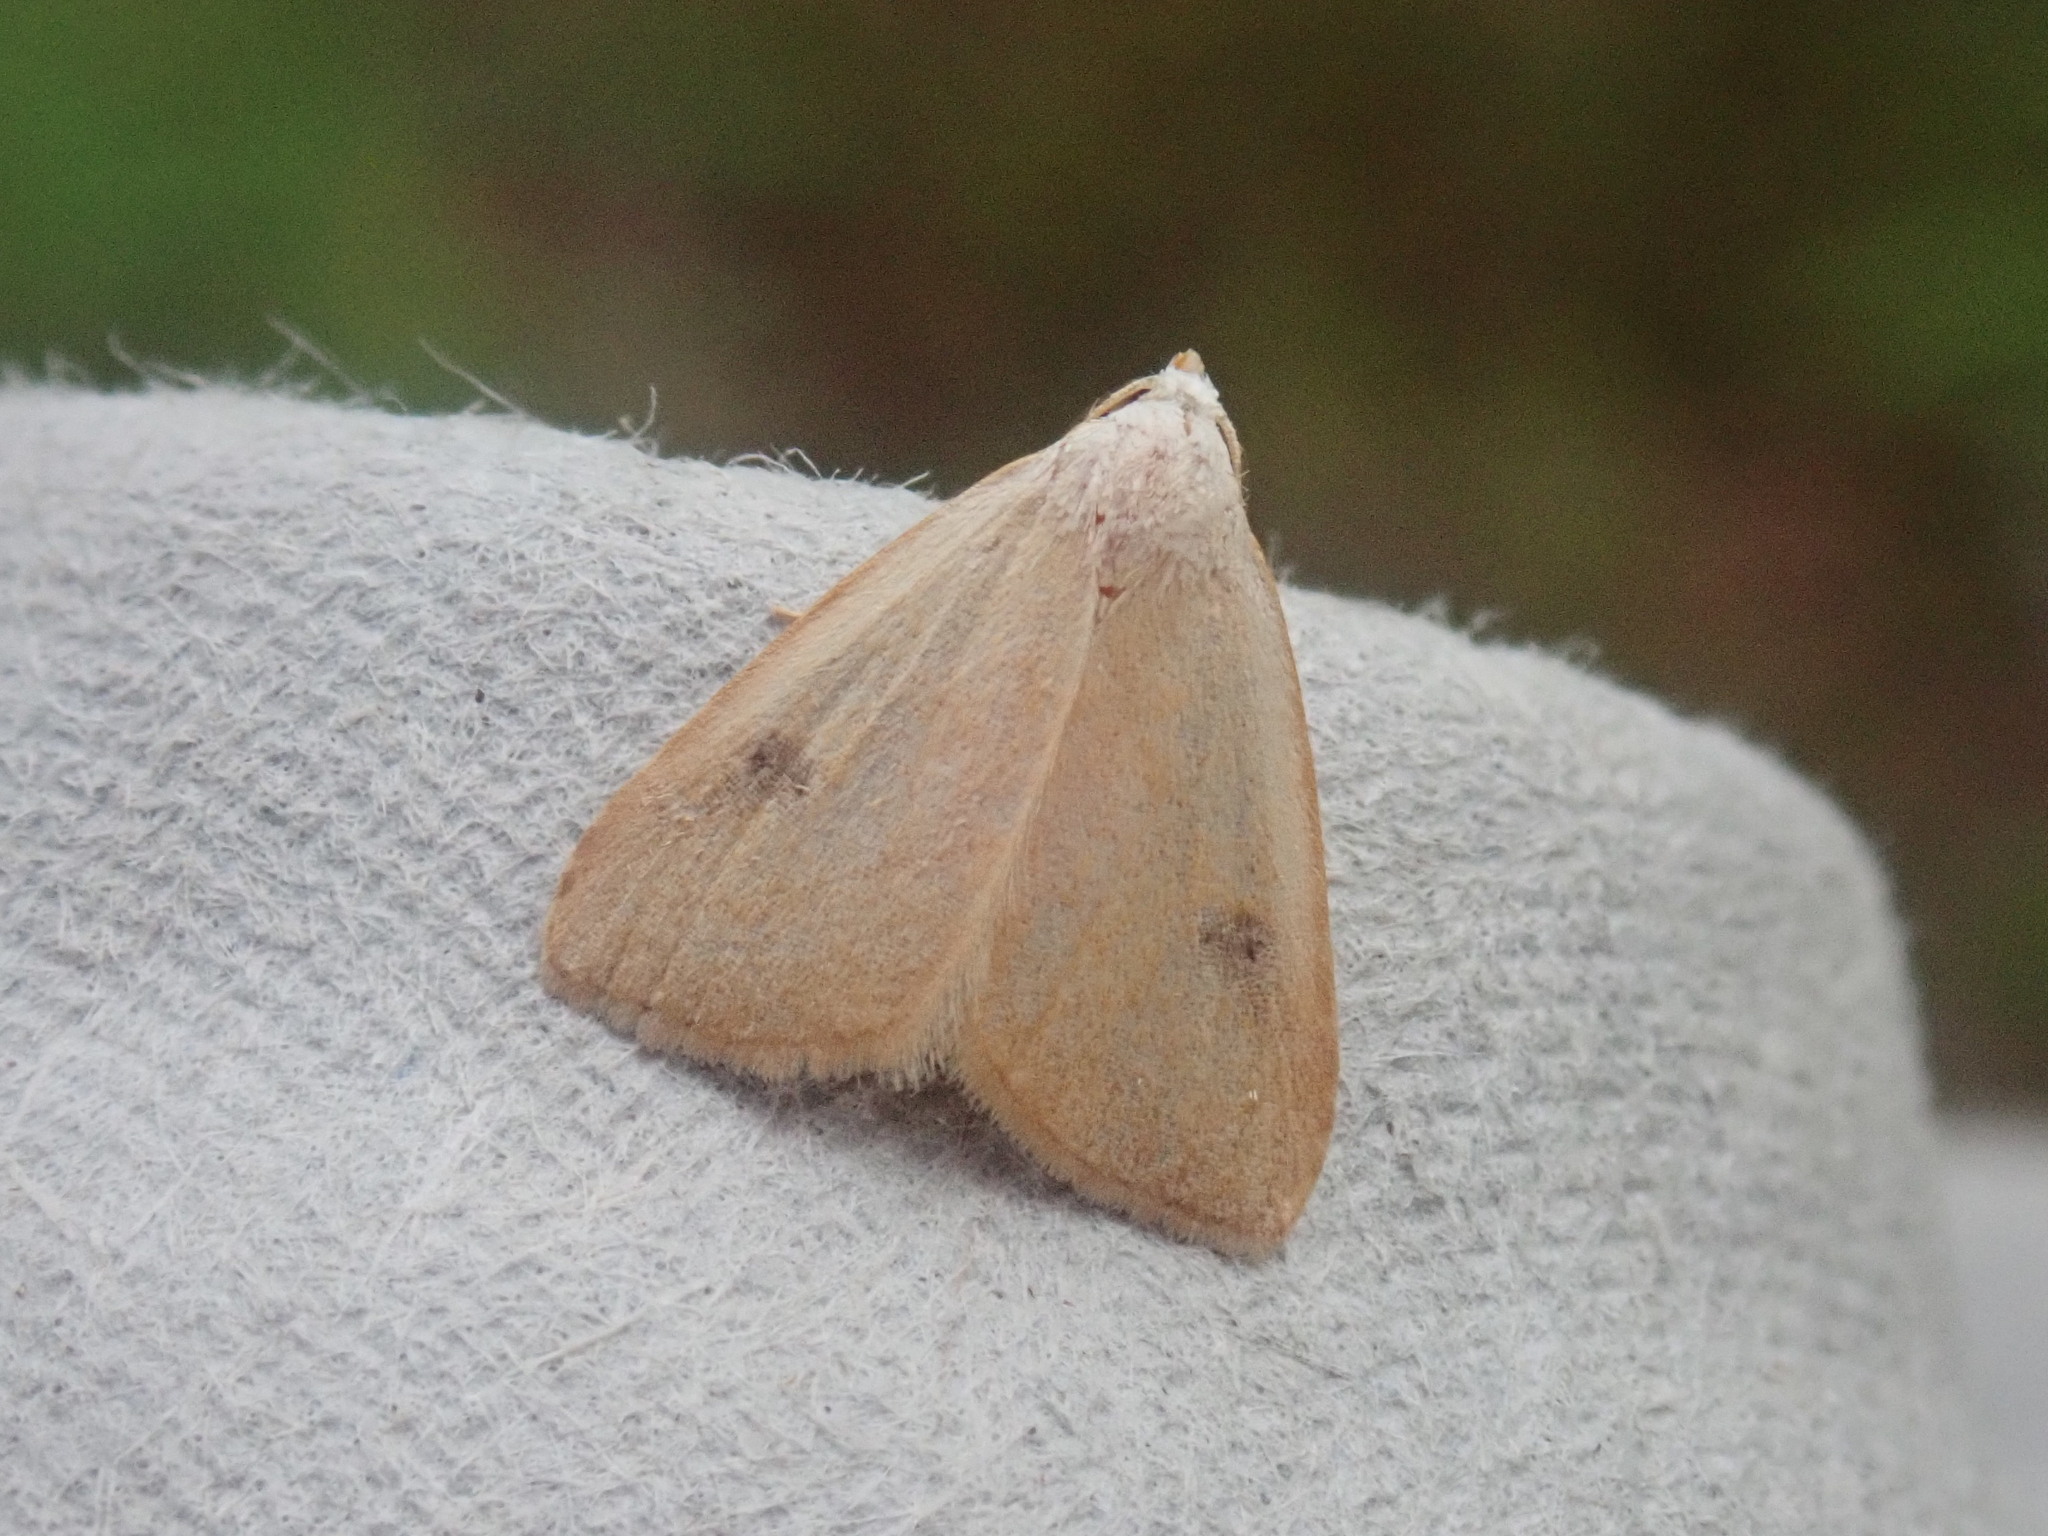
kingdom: Animalia
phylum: Arthropoda
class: Insecta
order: Lepidoptera
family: Erebidae
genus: Rivula
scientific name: Rivula propinqualis
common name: Spotted grass moth
